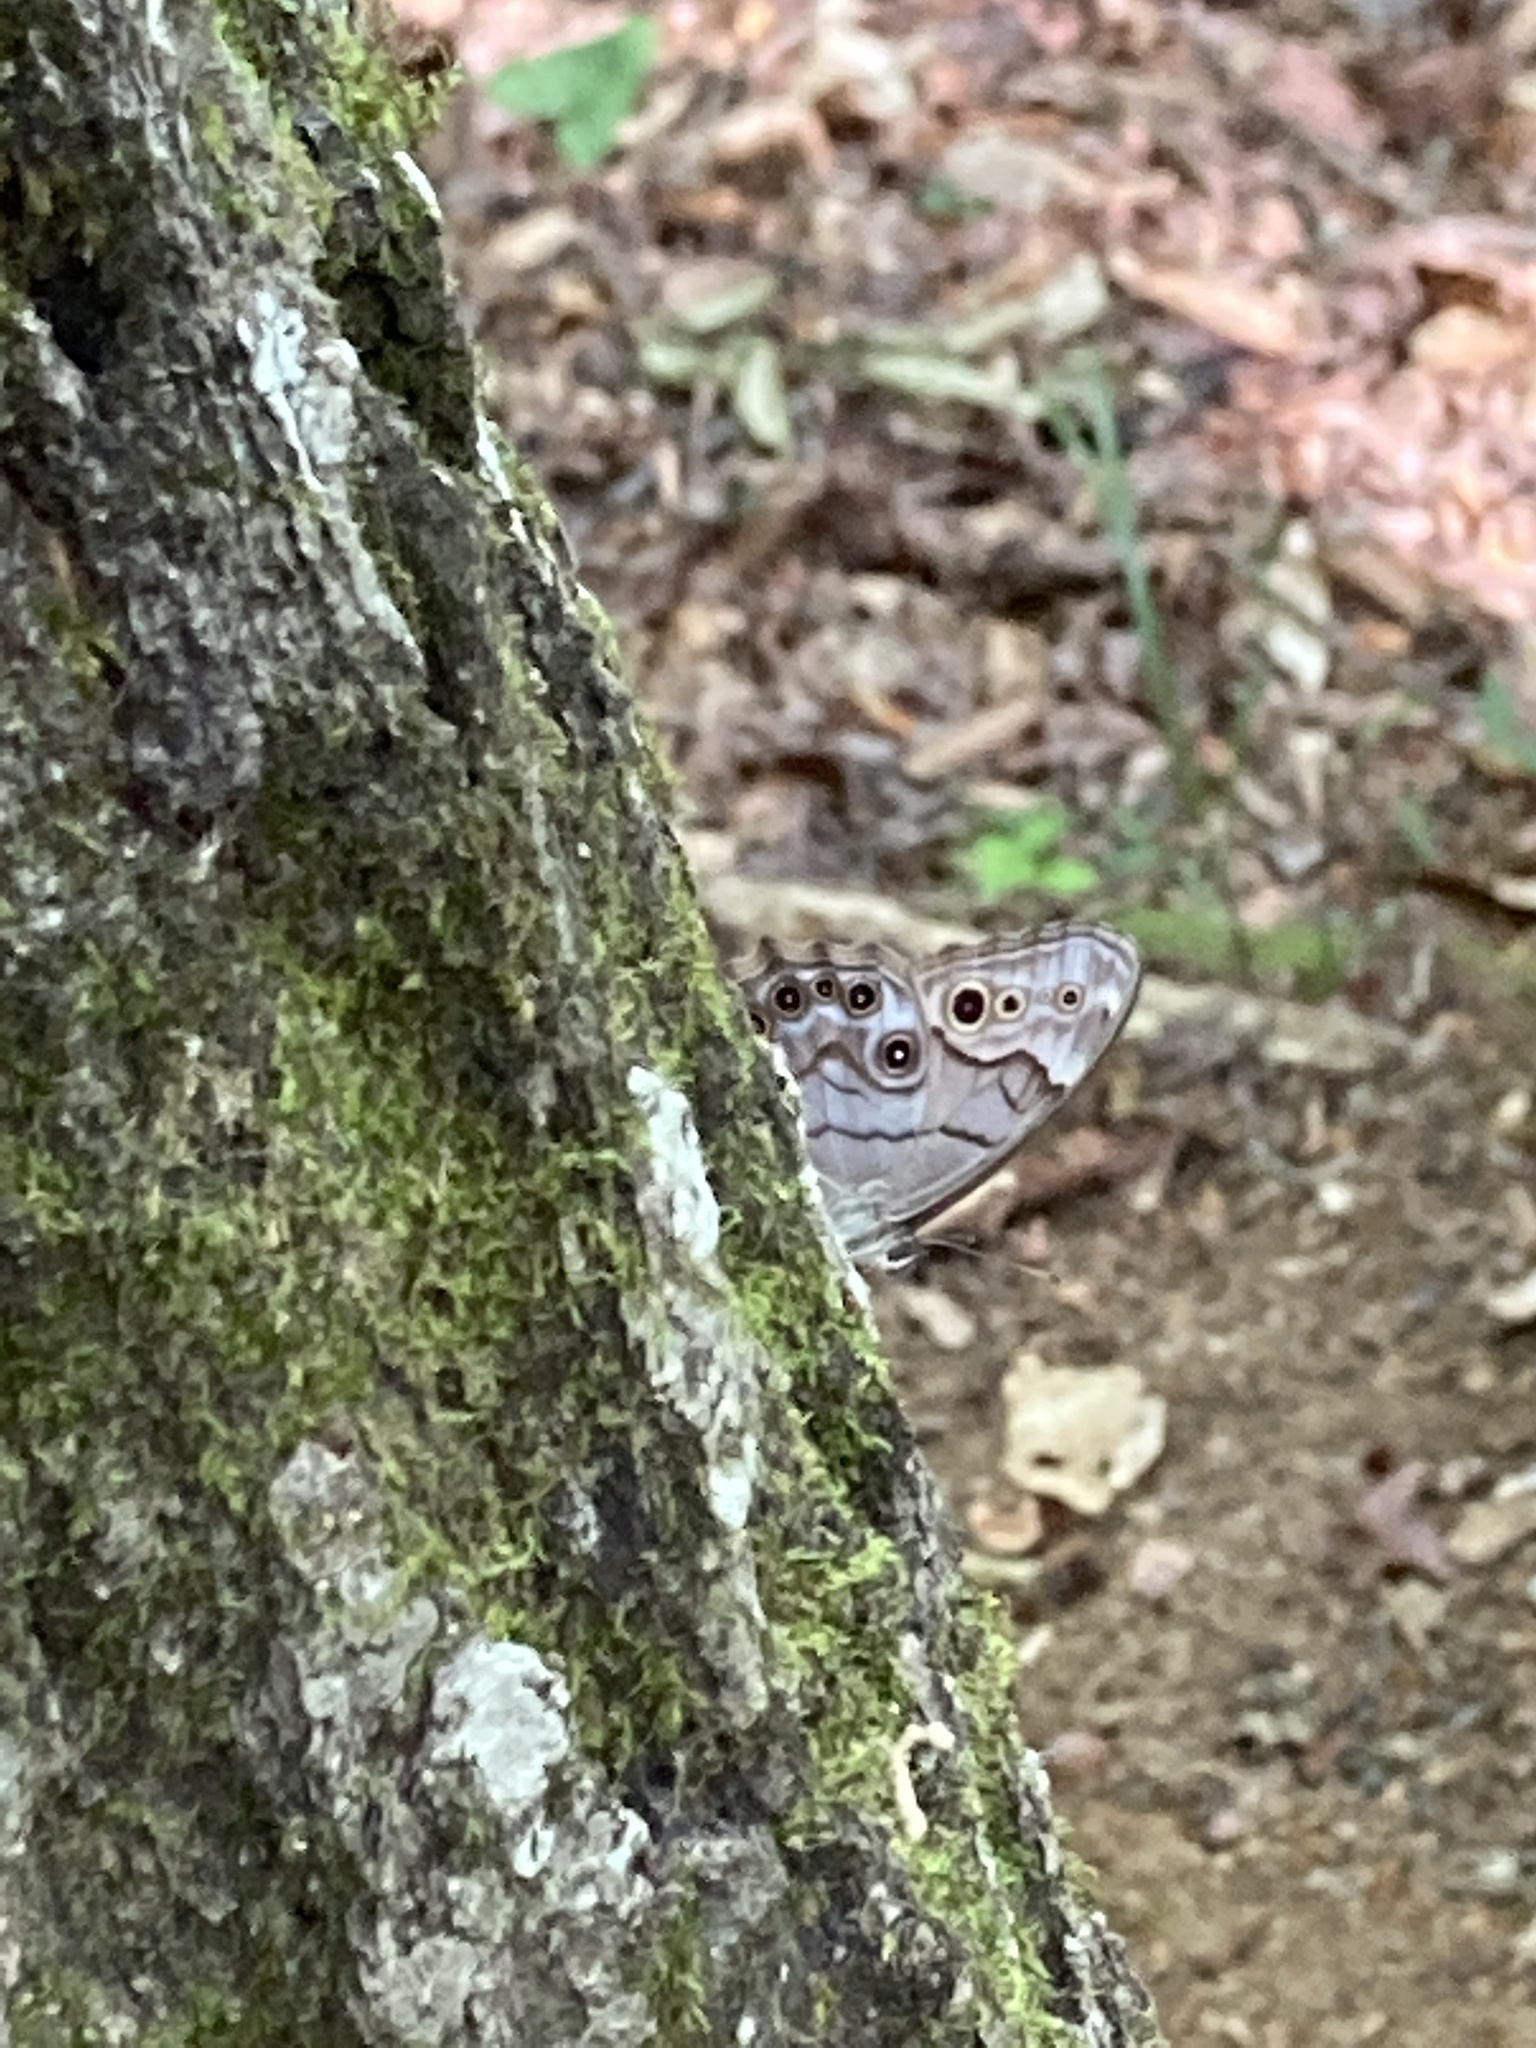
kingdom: Animalia
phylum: Arthropoda
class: Insecta
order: Lepidoptera
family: Nymphalidae
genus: Lethe
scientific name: Lethe anthedon
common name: Northern pearly-eye
